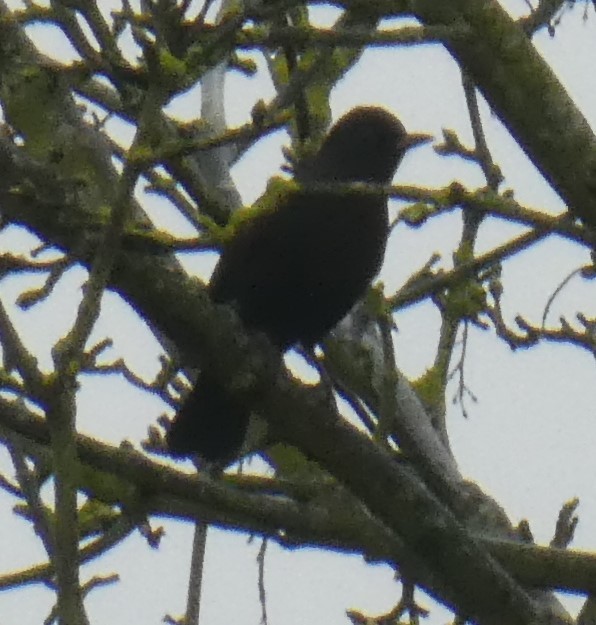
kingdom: Animalia
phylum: Chordata
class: Aves
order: Passeriformes
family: Turdidae
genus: Turdus
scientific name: Turdus merula
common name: Common blackbird
